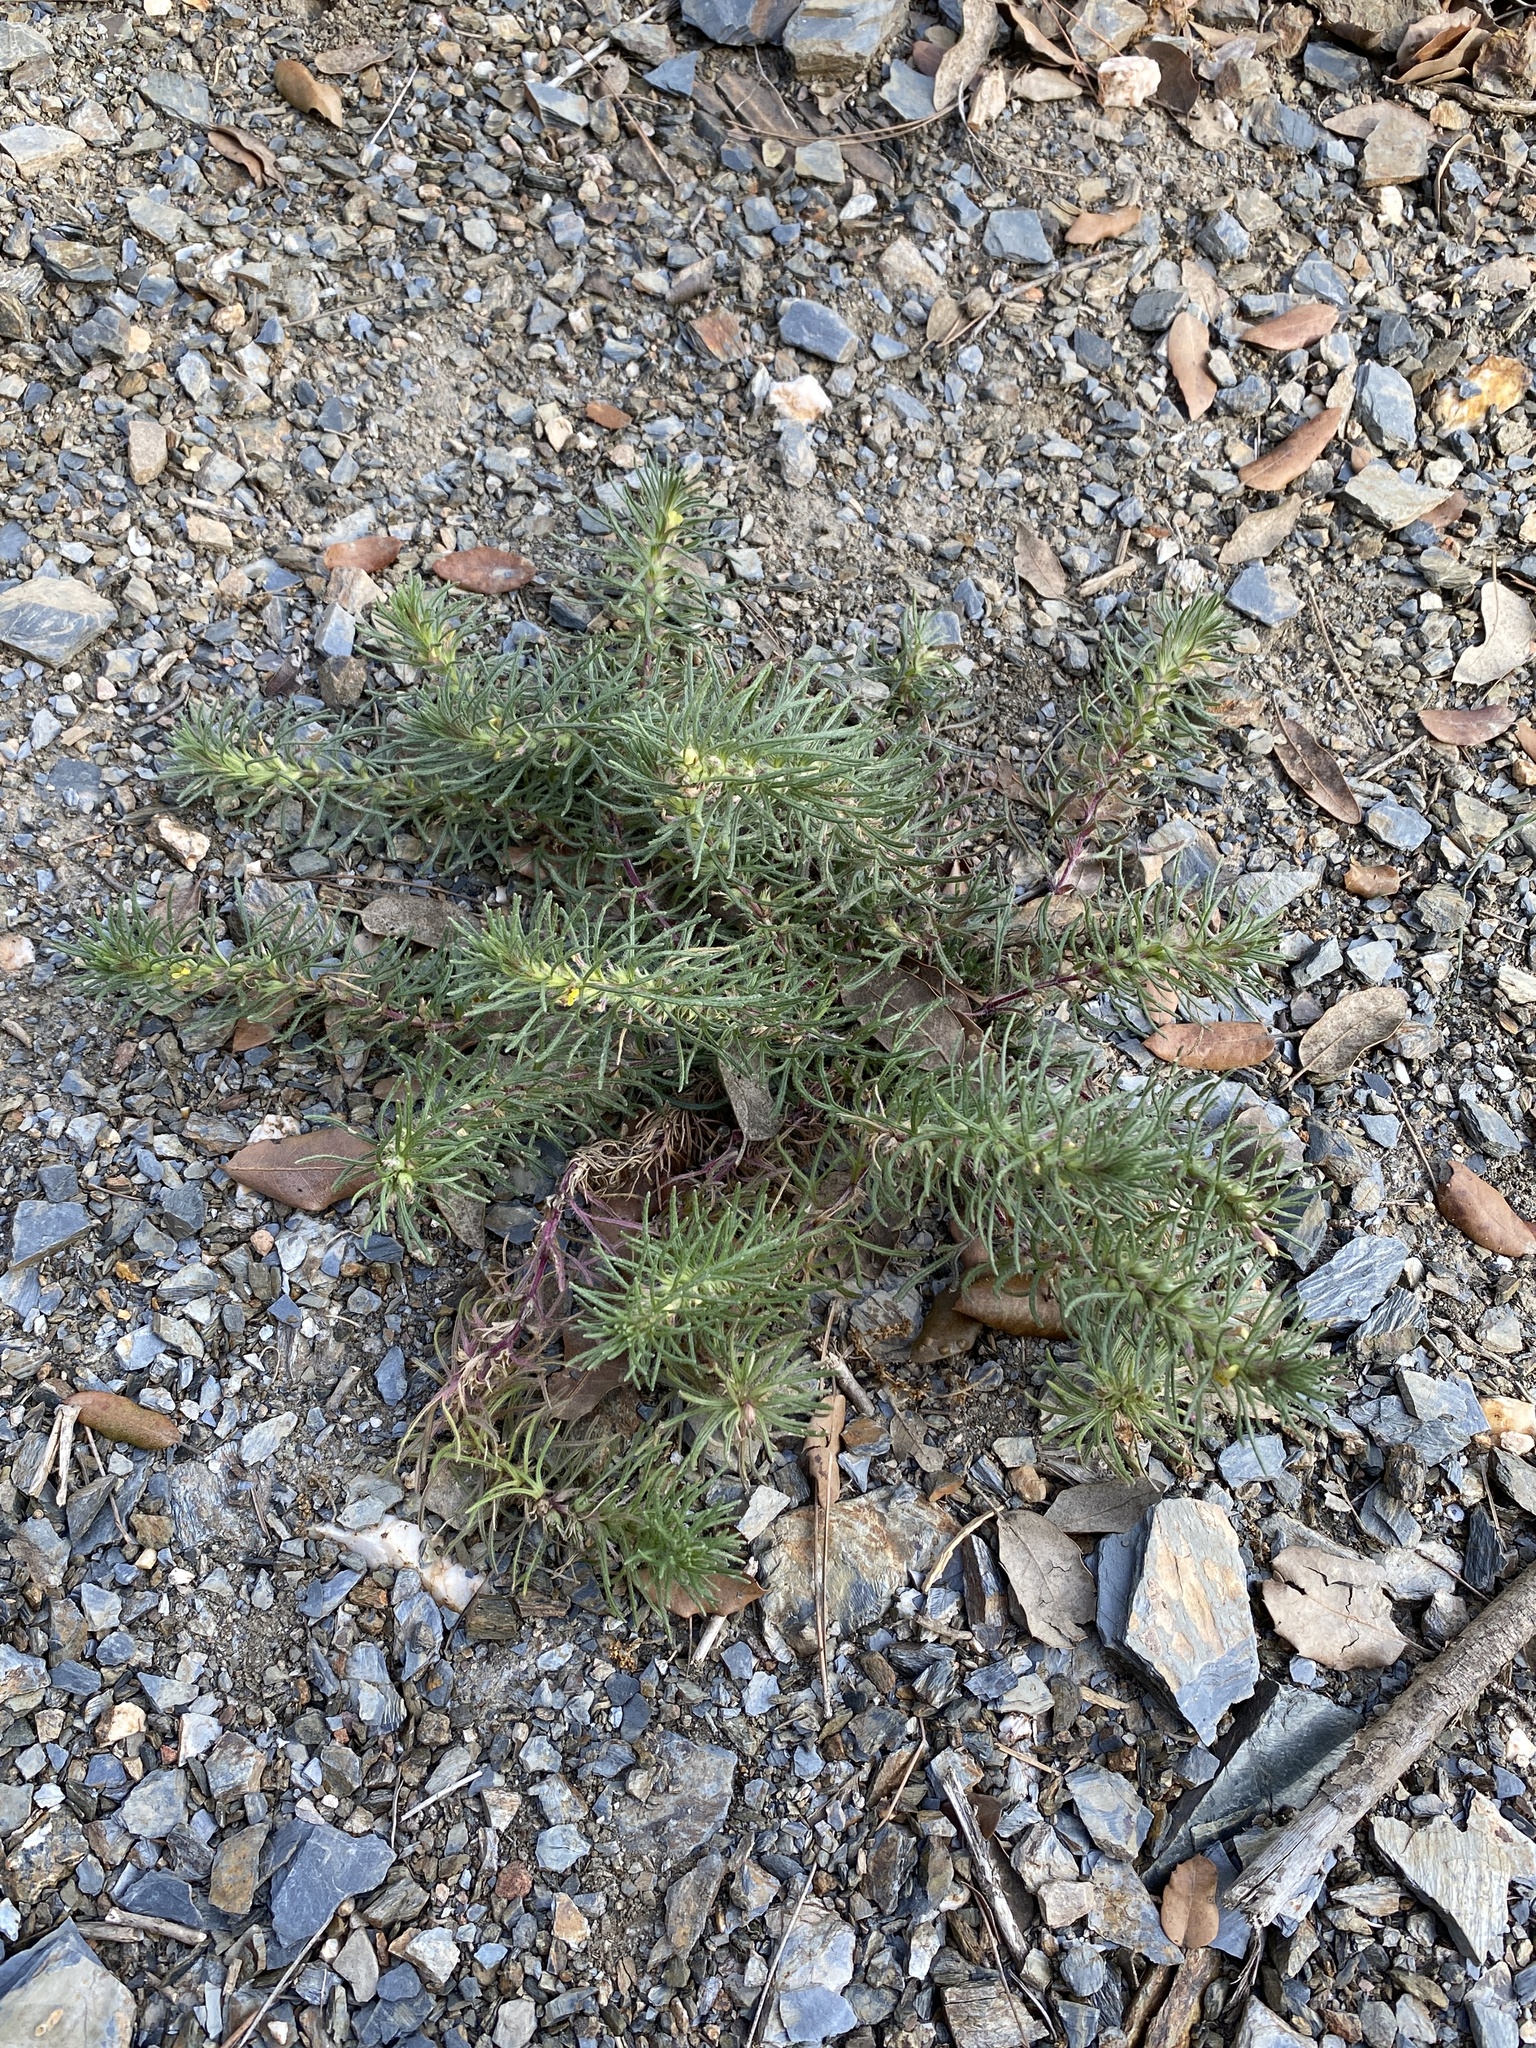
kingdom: Plantae
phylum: Tracheophyta
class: Magnoliopsida
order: Lamiales
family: Lamiaceae
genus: Ajuga
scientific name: Ajuga chamaepitys
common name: Ground-pine
